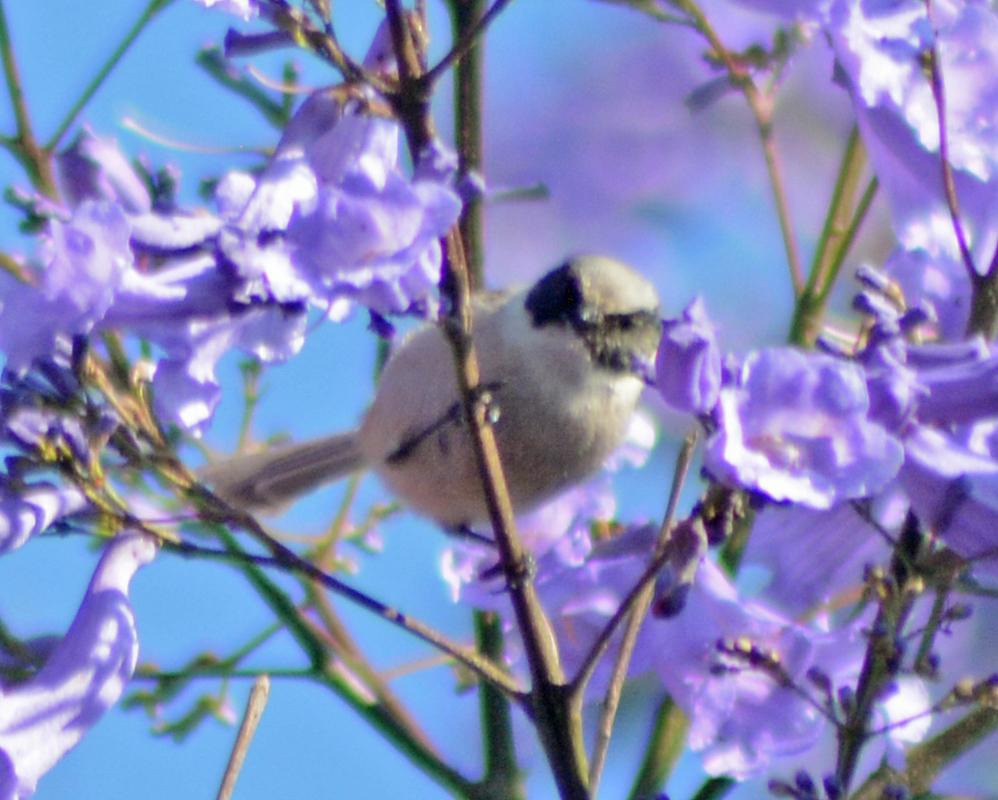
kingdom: Animalia
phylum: Chordata
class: Aves
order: Passeriformes
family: Aegithalidae
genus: Psaltriparus
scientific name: Psaltriparus minimus
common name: American bushtit
